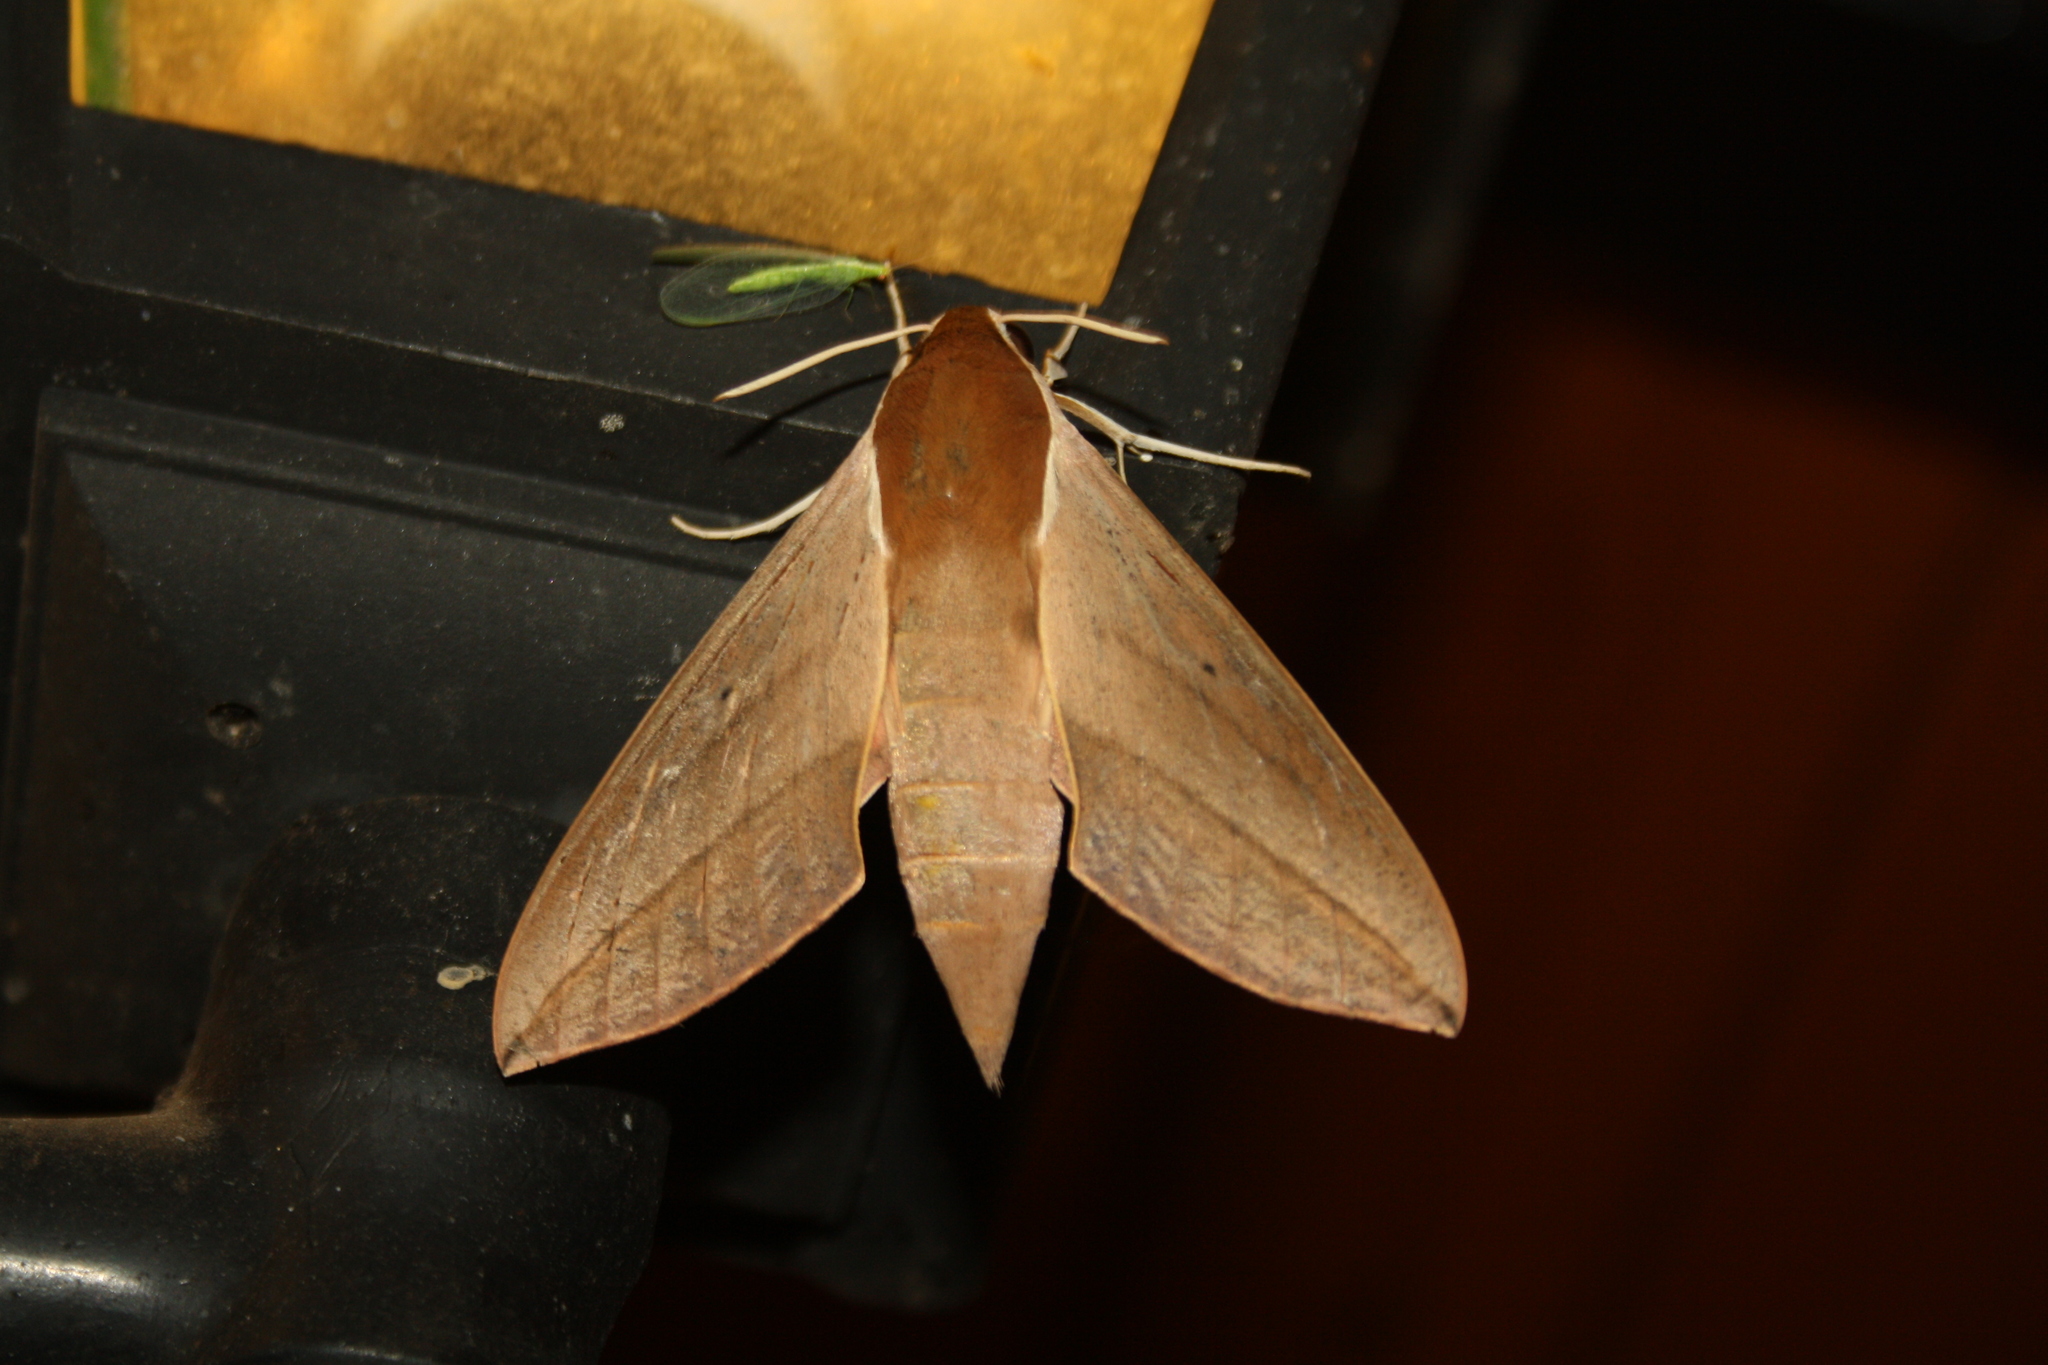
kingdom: Animalia
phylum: Arthropoda
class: Insecta
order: Lepidoptera
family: Sphingidae
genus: Theretra
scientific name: Theretra alecto
